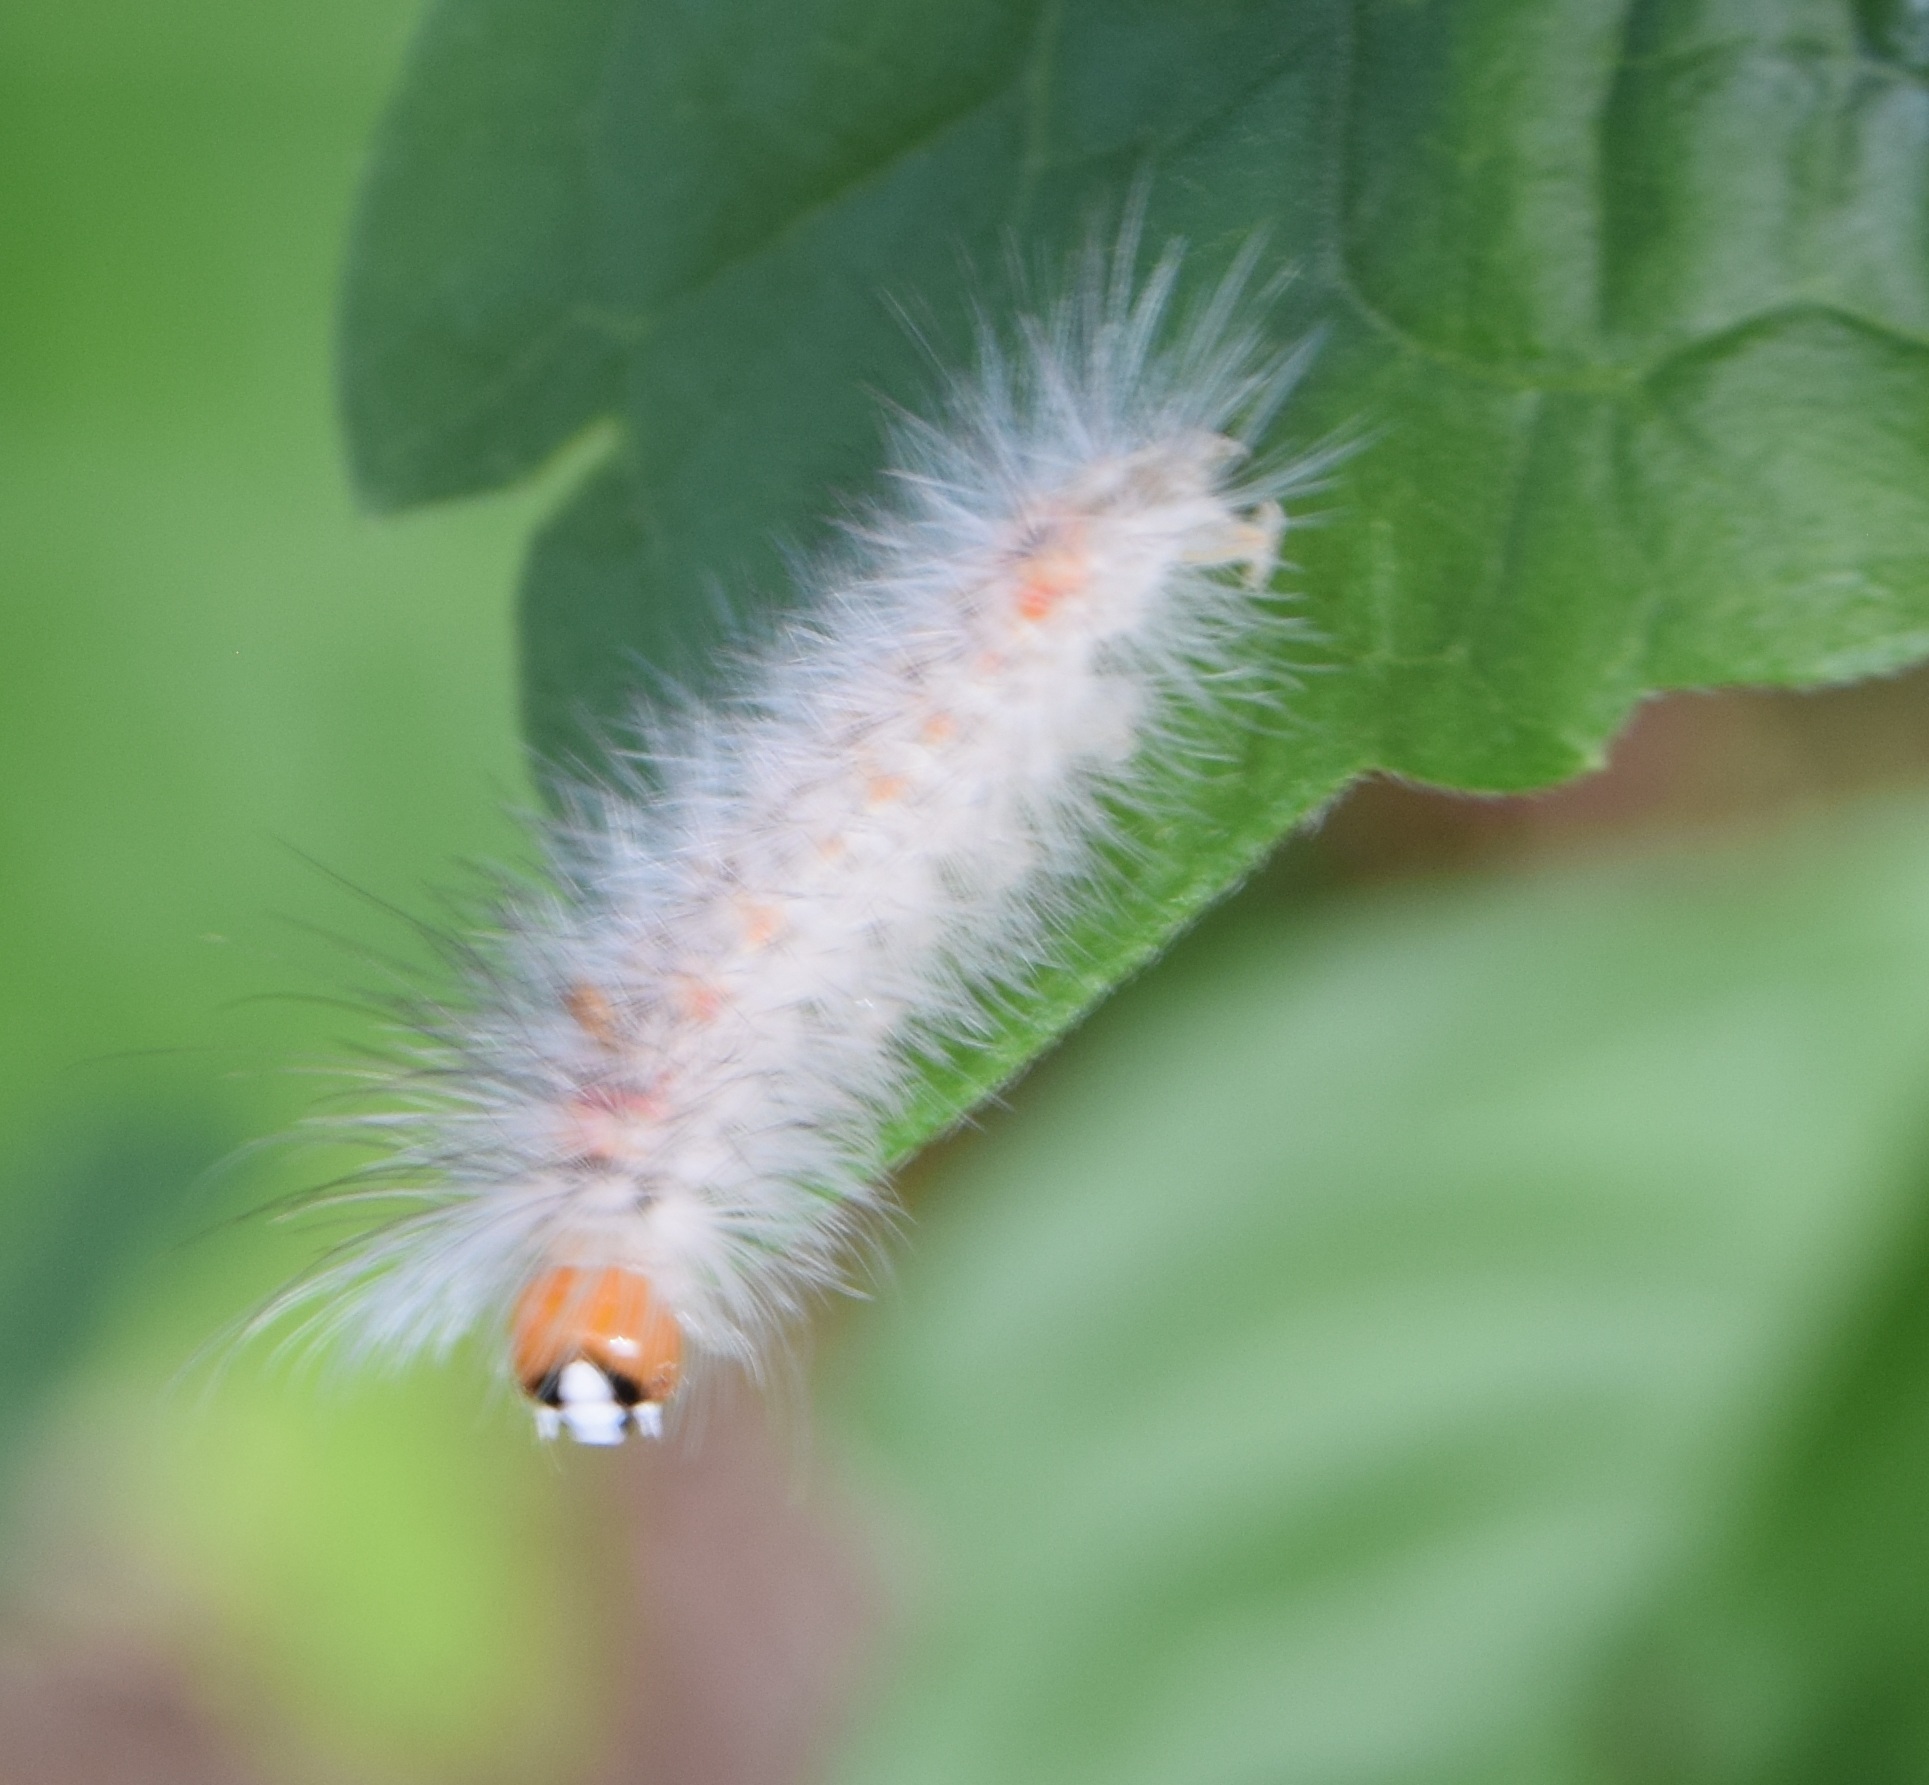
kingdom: Animalia
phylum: Arthropoda
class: Insecta
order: Lepidoptera
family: Erebidae
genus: Lymire
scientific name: Lymire edwardsii
